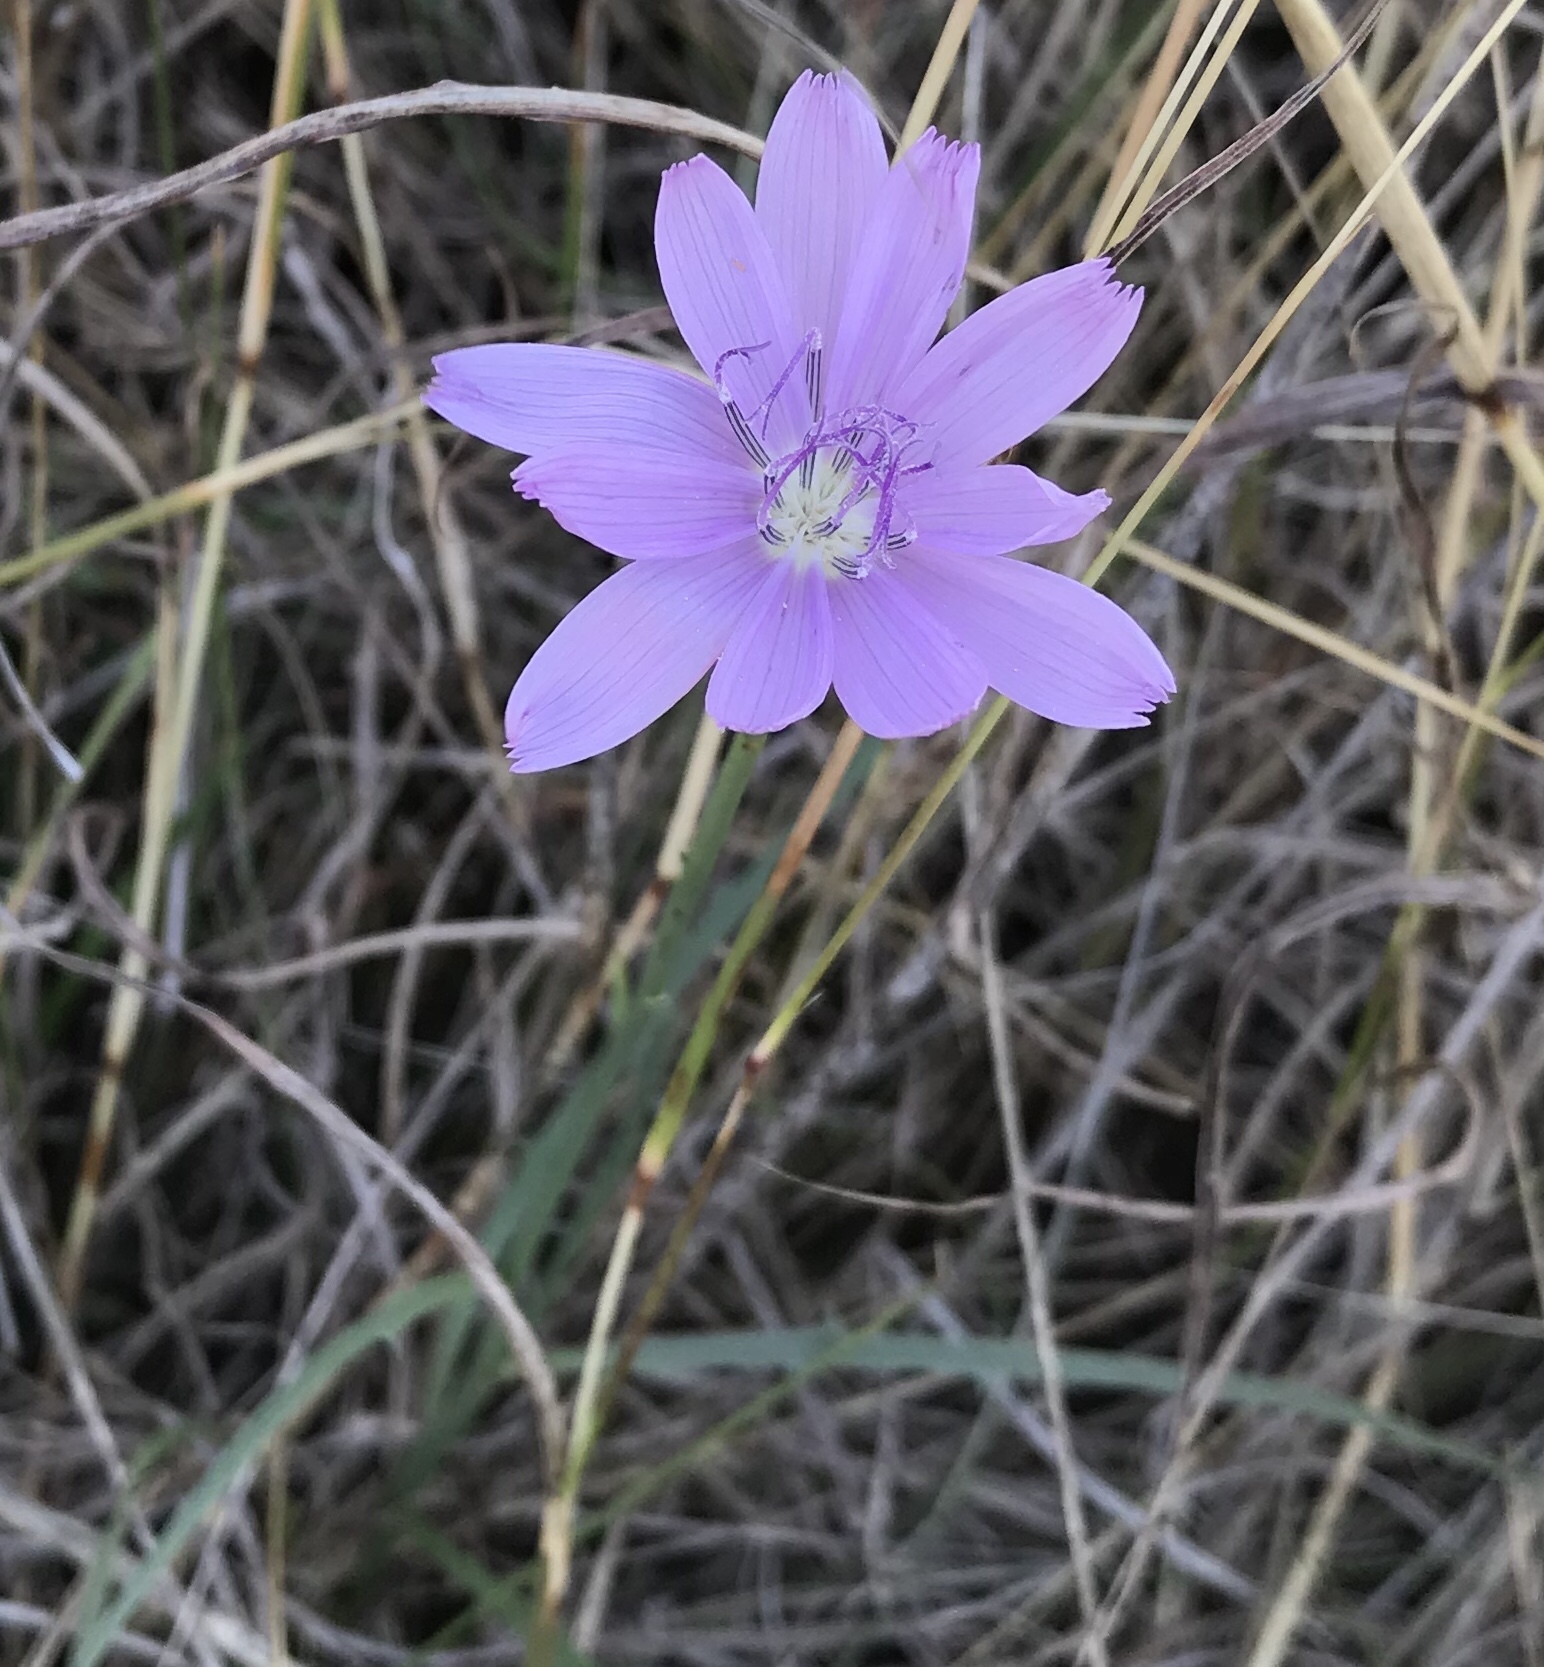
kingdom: Plantae
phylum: Tracheophyta
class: Magnoliopsida
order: Asterales
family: Asteraceae
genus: Lygodesmia
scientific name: Lygodesmia texana
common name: Texas skeleton-plant
